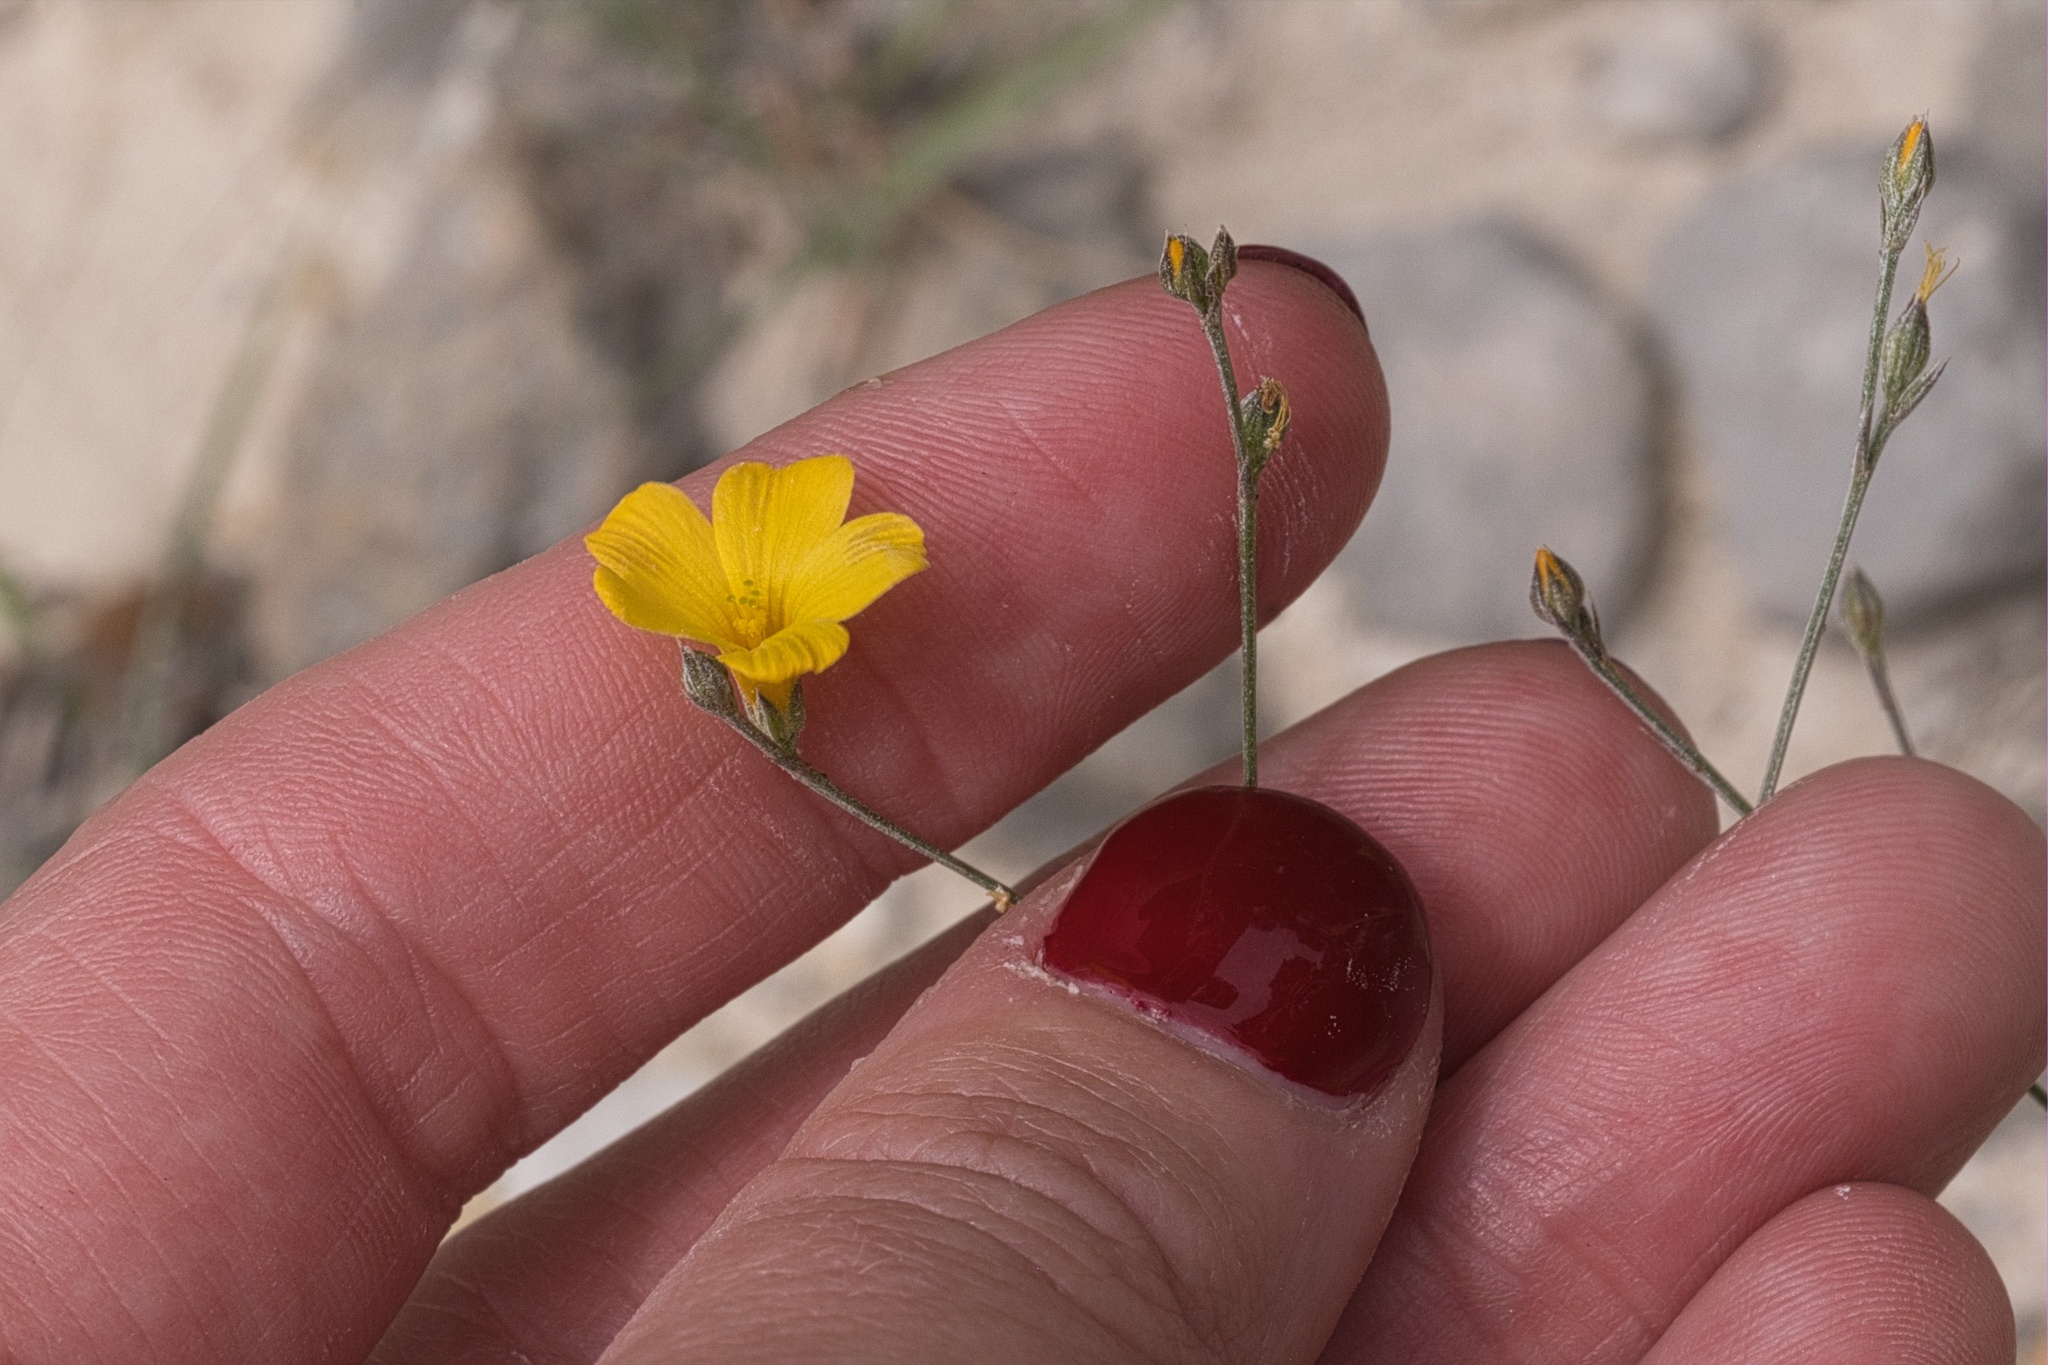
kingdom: Plantae
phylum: Tracheophyta
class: Magnoliopsida
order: Malpighiales
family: Linaceae
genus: Linum
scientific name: Linum rupestre
